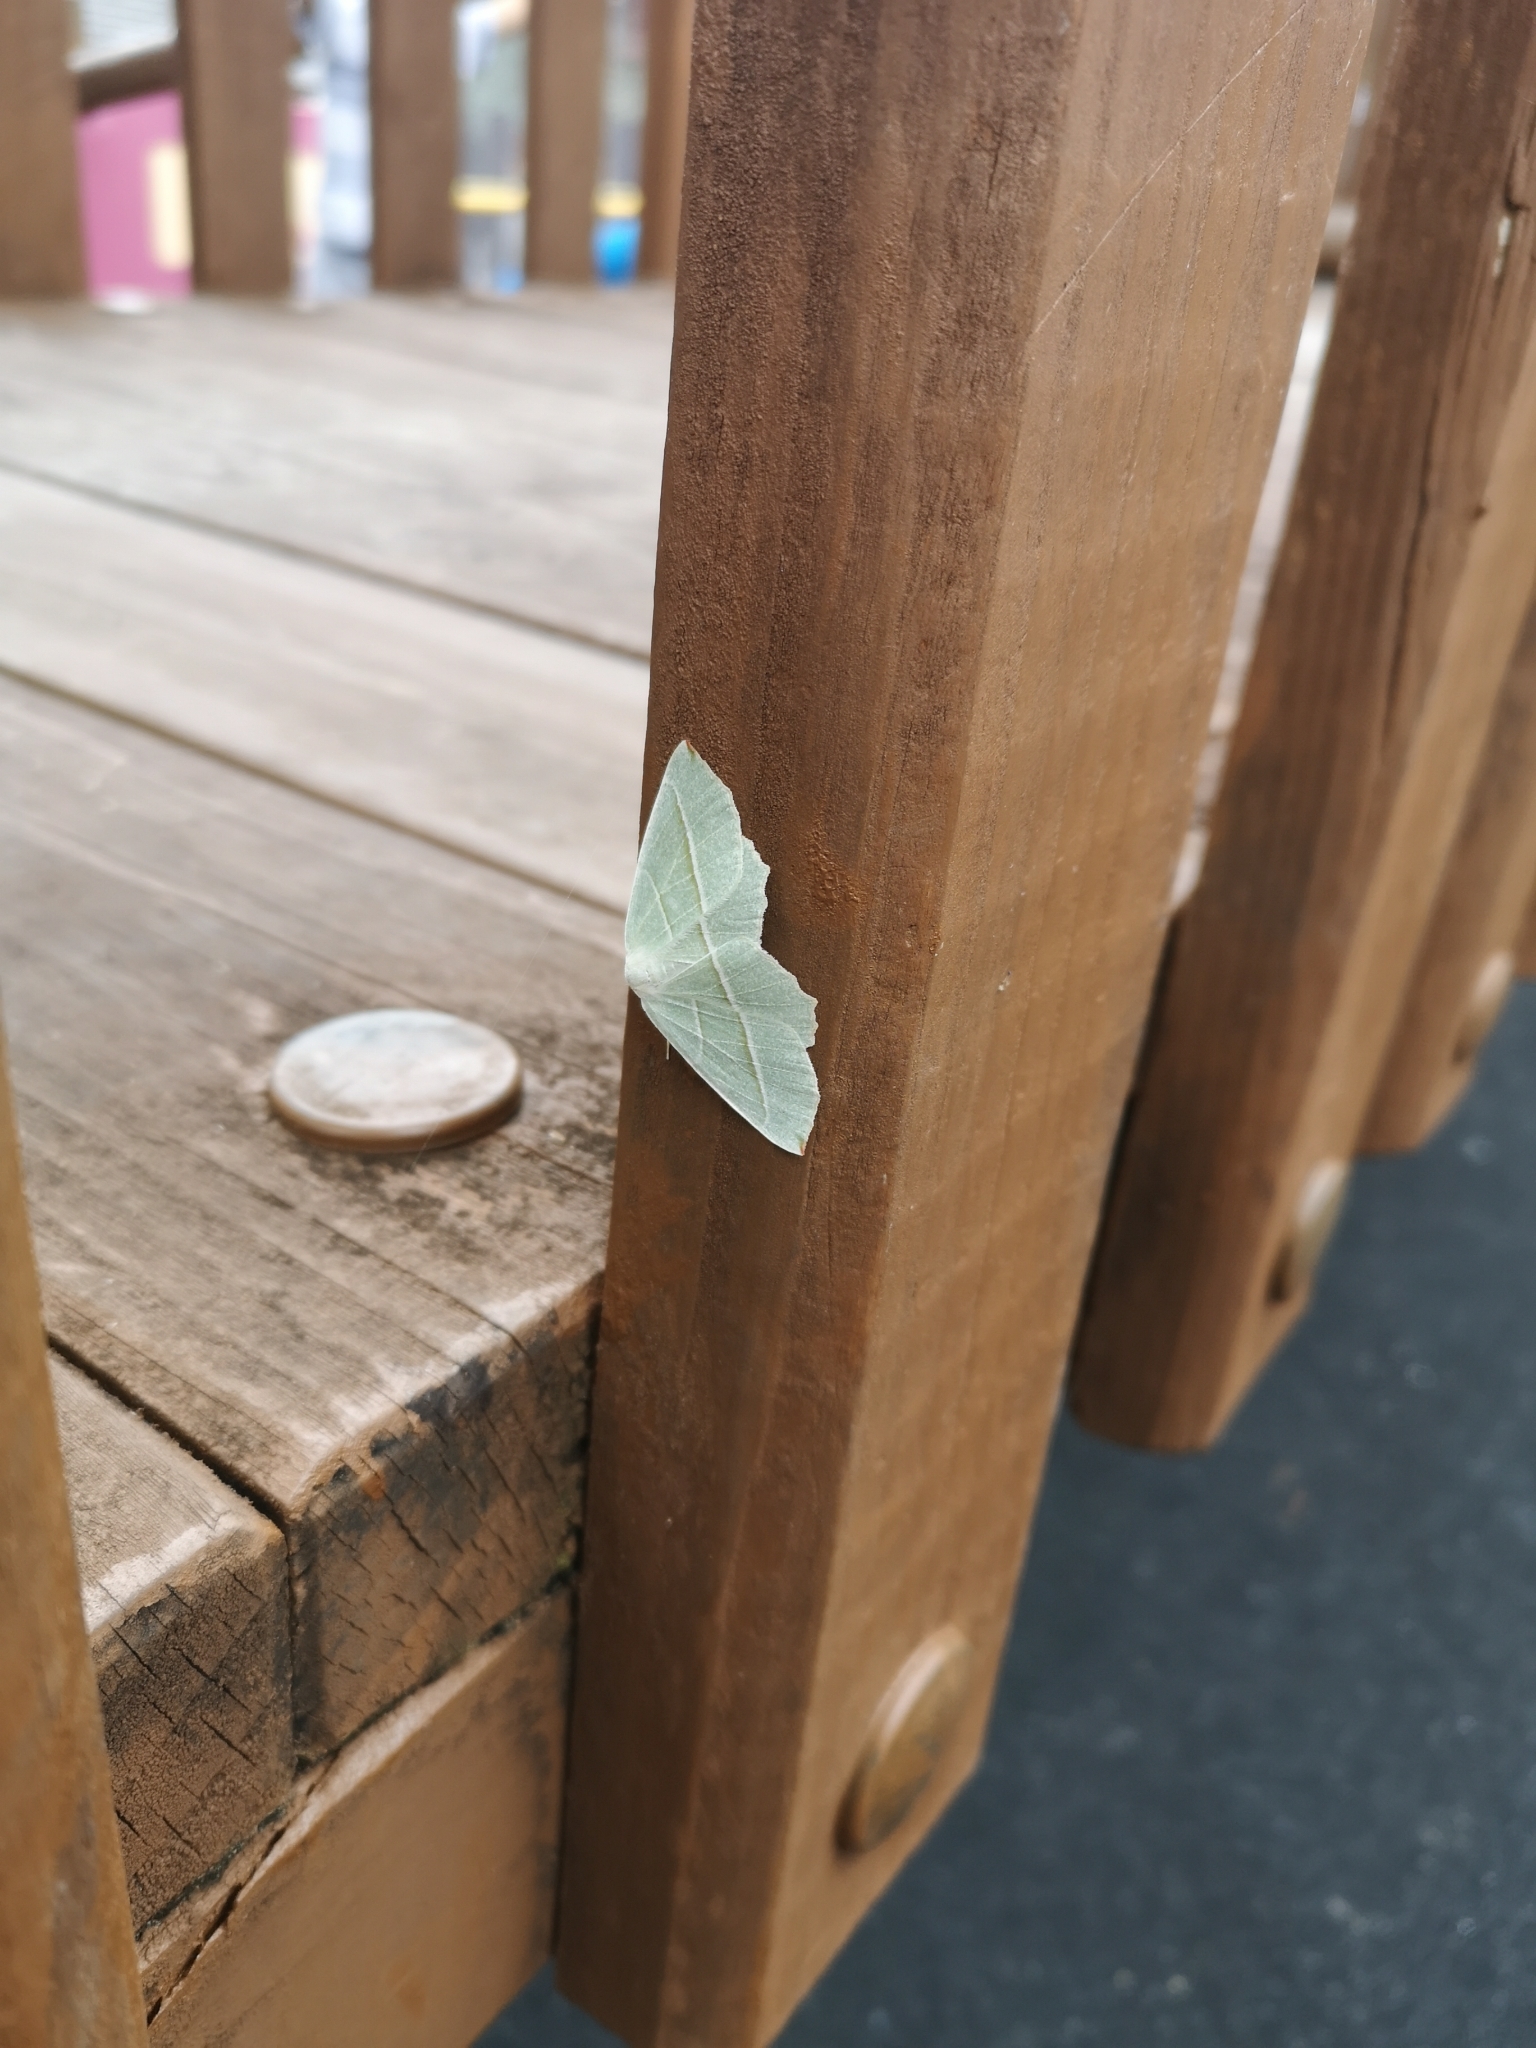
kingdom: Animalia
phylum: Arthropoda
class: Insecta
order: Lepidoptera
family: Geometridae
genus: Campaea
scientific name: Campaea margaritaria
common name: Light emerald
